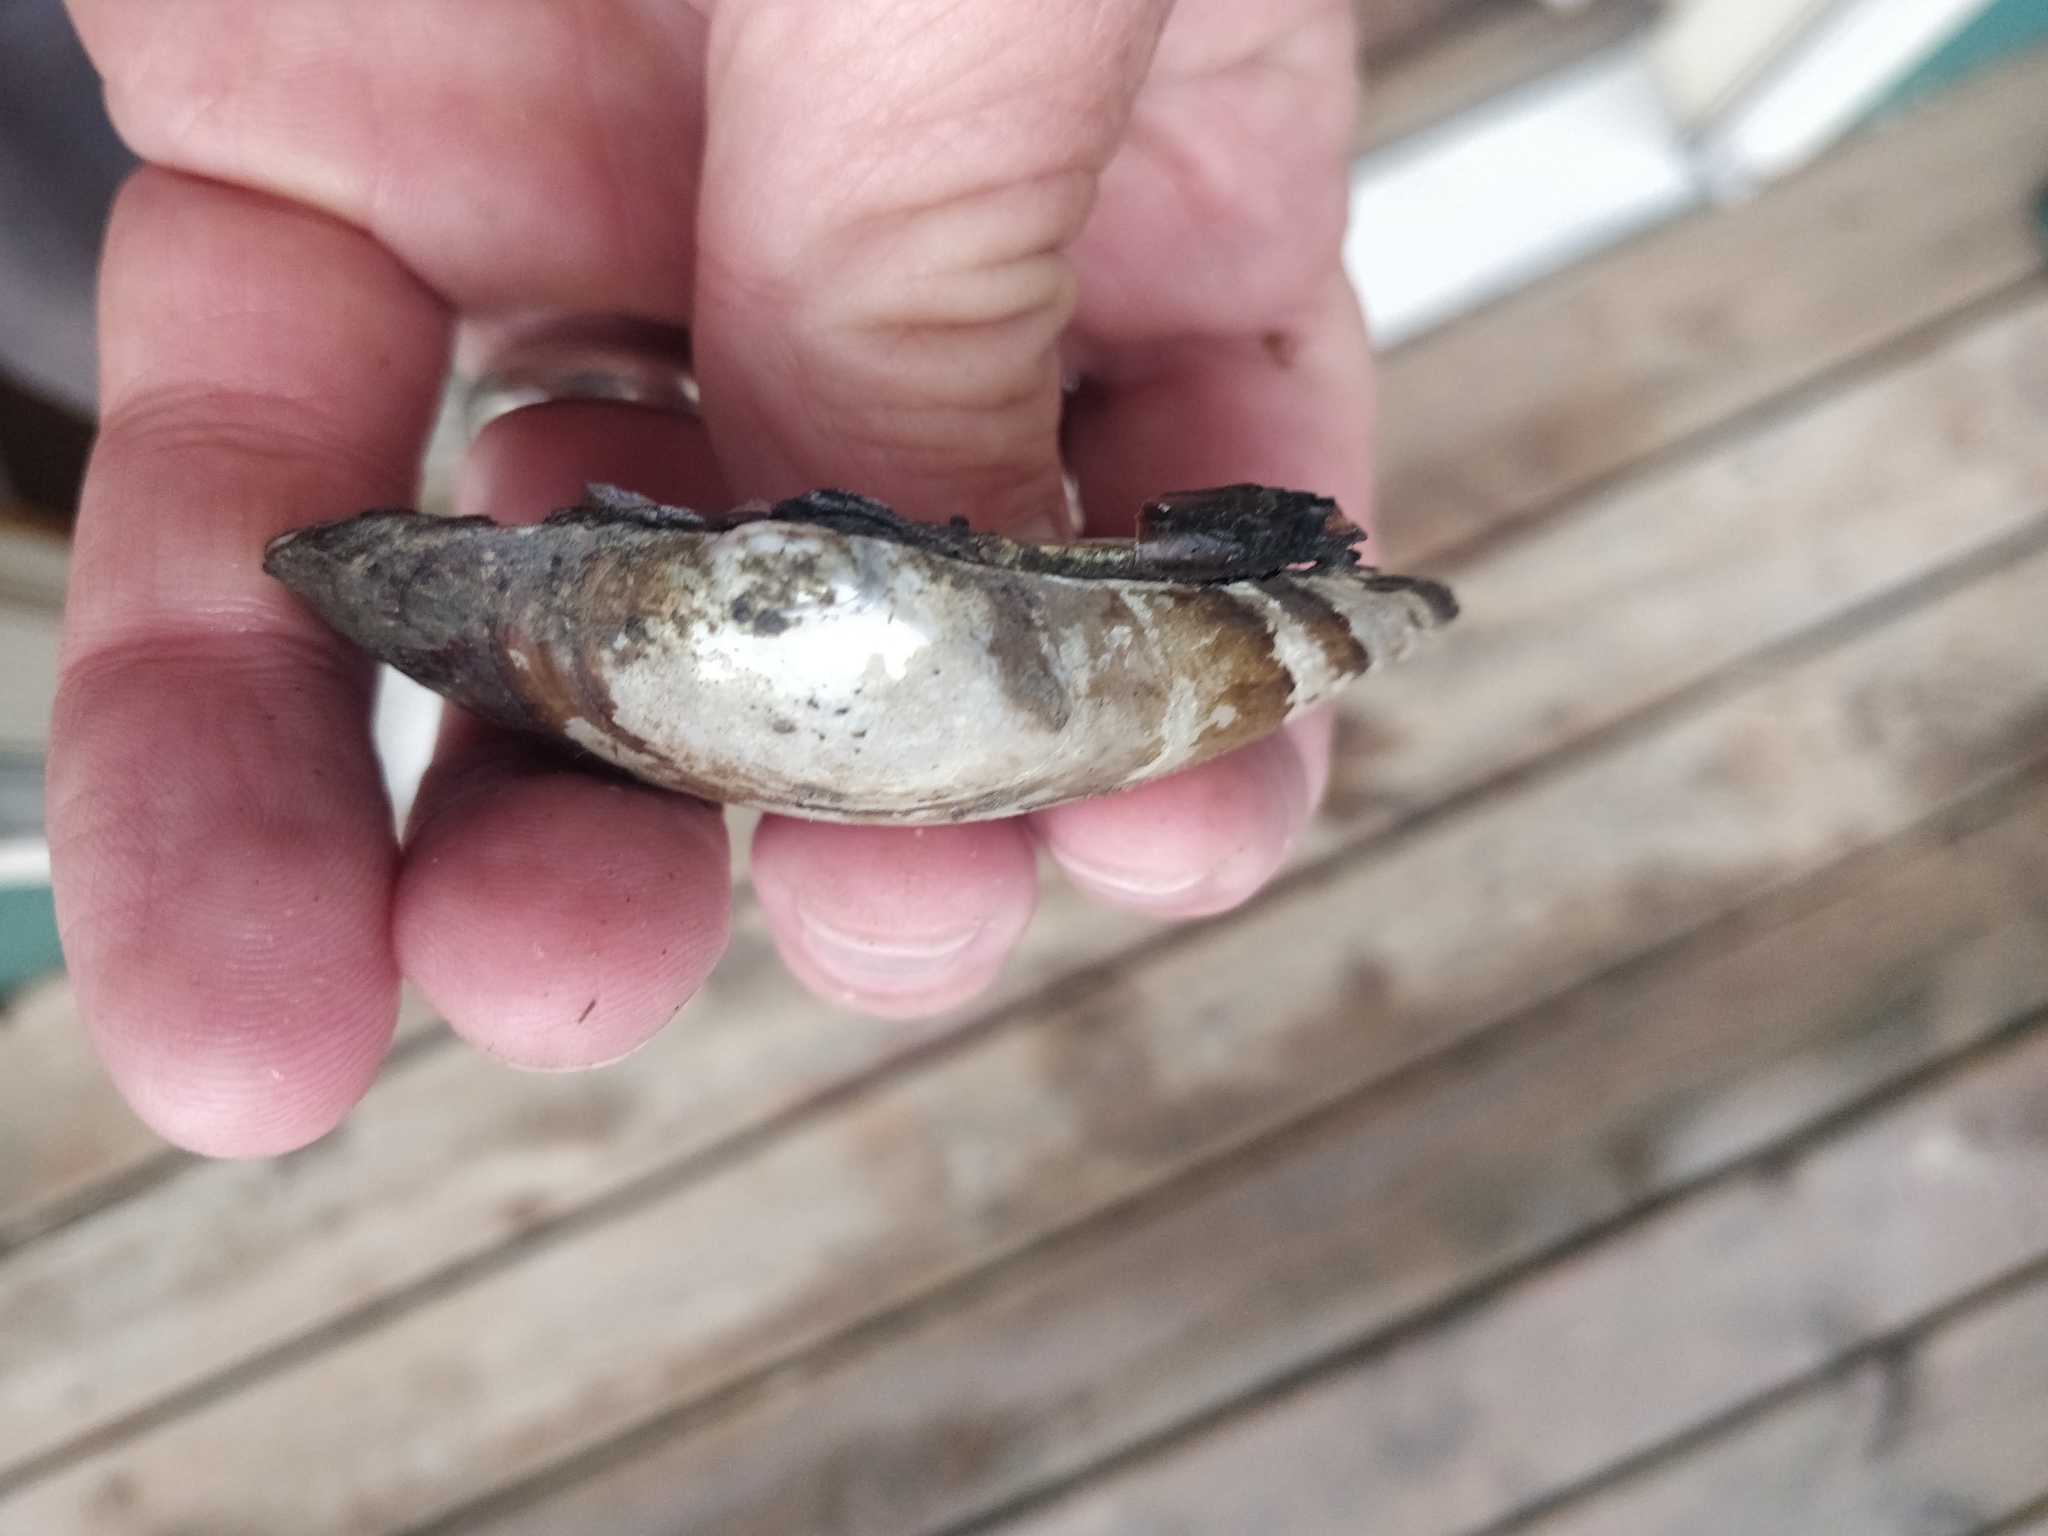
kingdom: Animalia
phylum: Mollusca
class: Bivalvia
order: Unionida
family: Unionidae
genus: Lampsilis
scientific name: Lampsilis cardium
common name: Plain pocketbook
